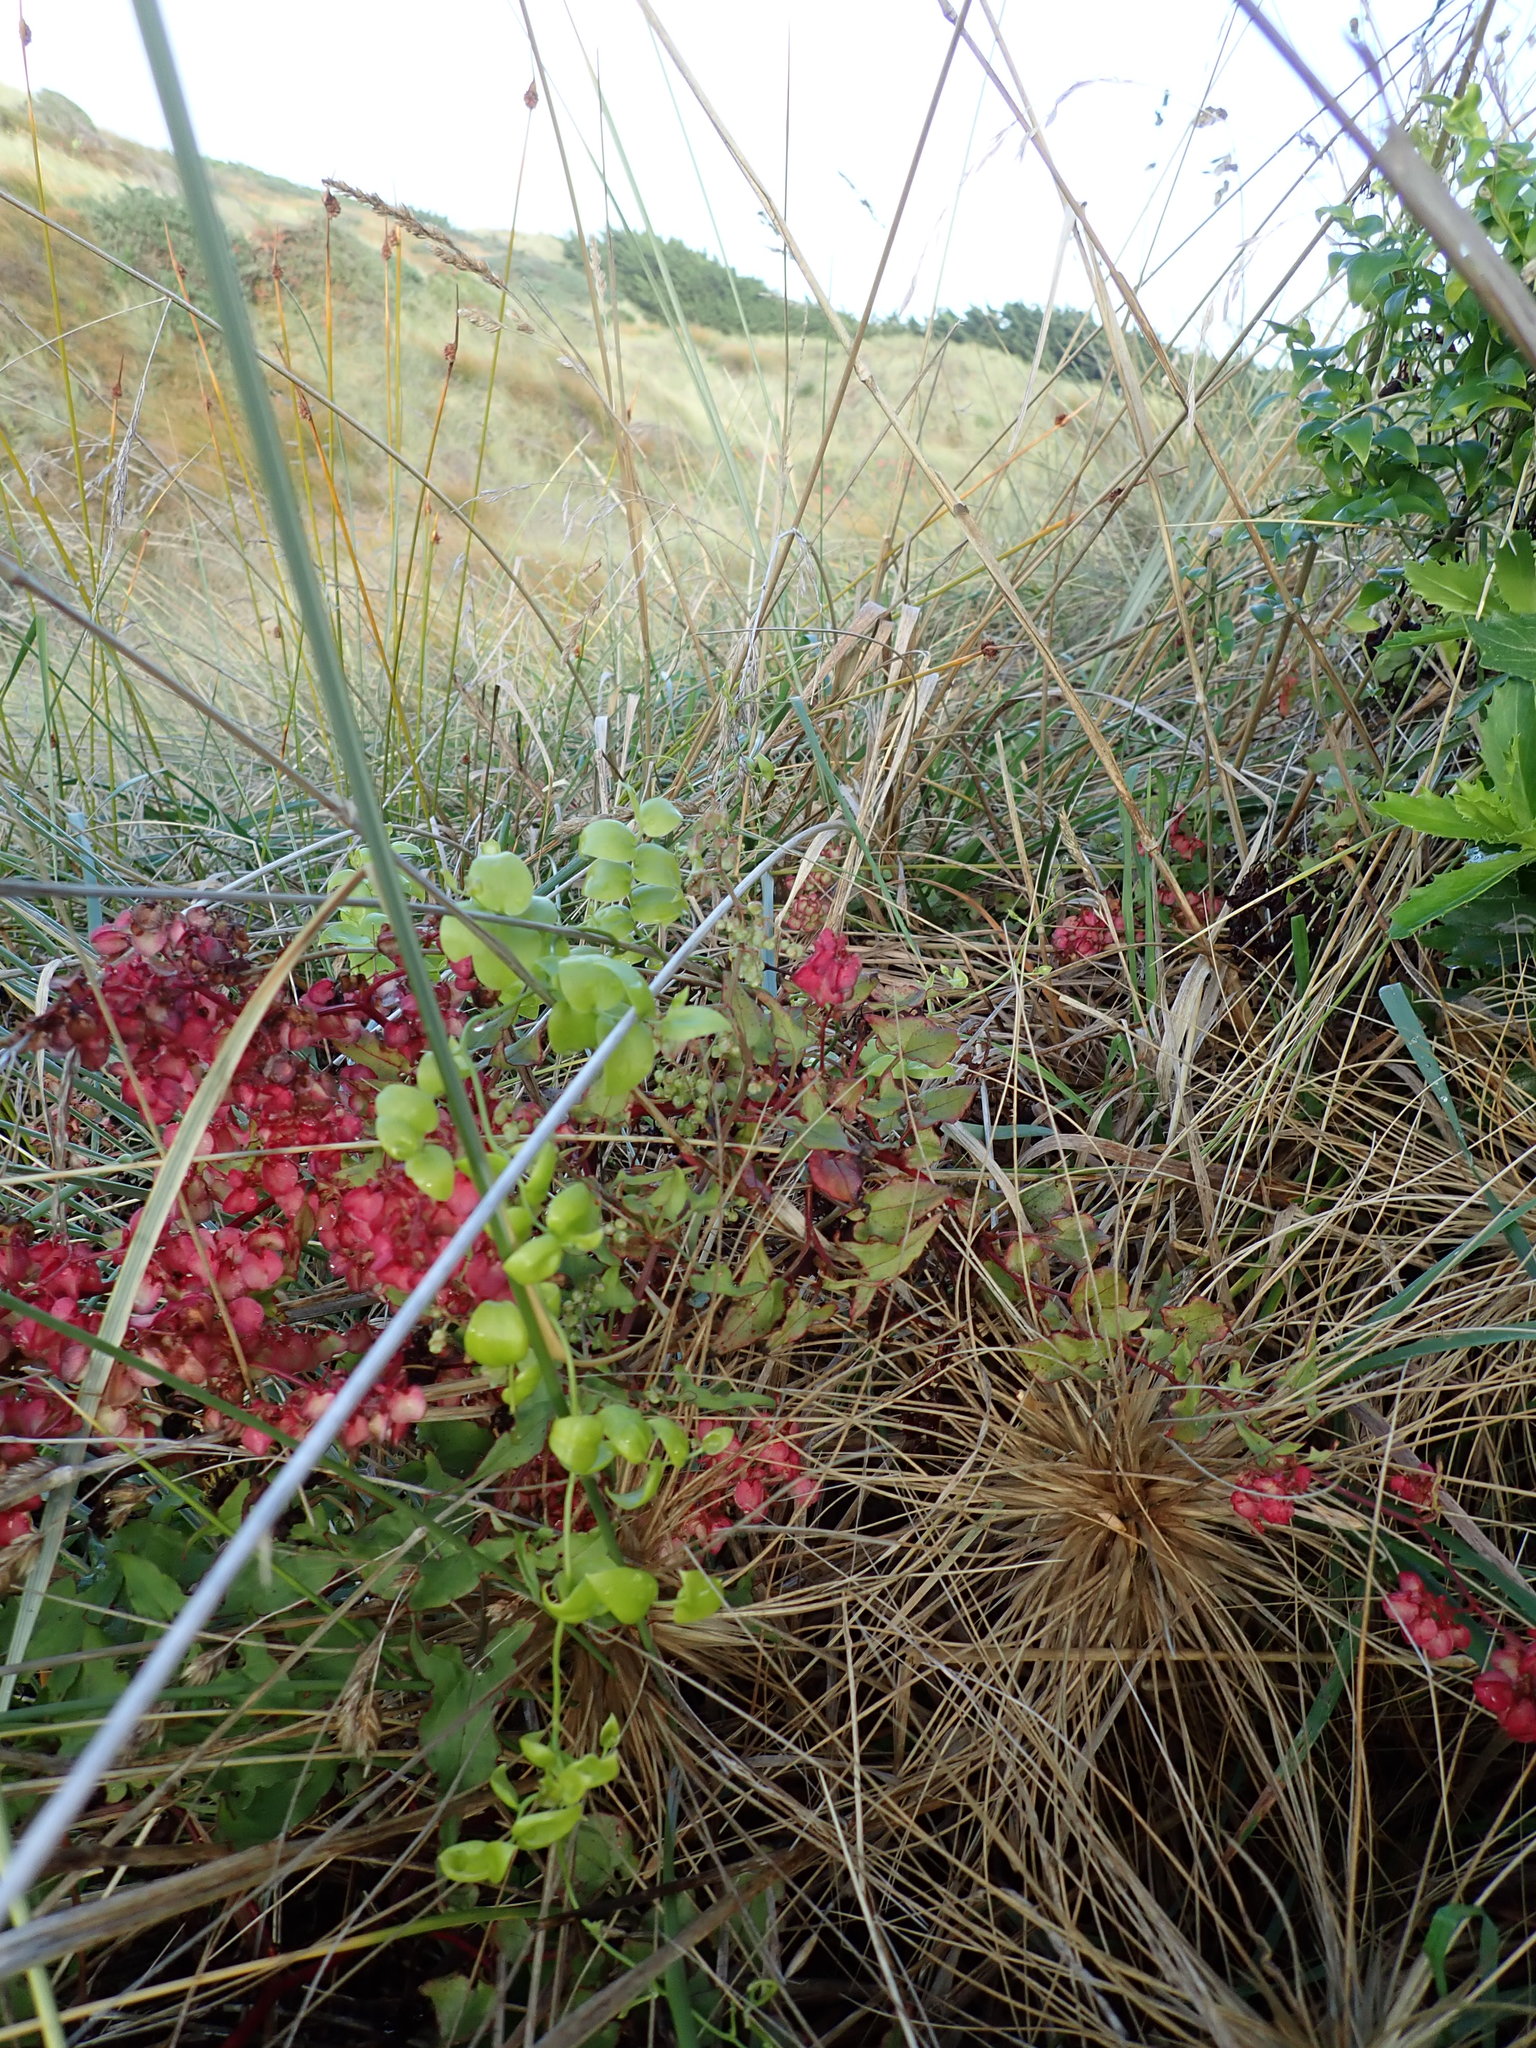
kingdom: Plantae
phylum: Tracheophyta
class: Liliopsida
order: Asparagales
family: Asparagaceae
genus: Asparagus
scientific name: Asparagus asparagoides
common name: African asparagus fern
